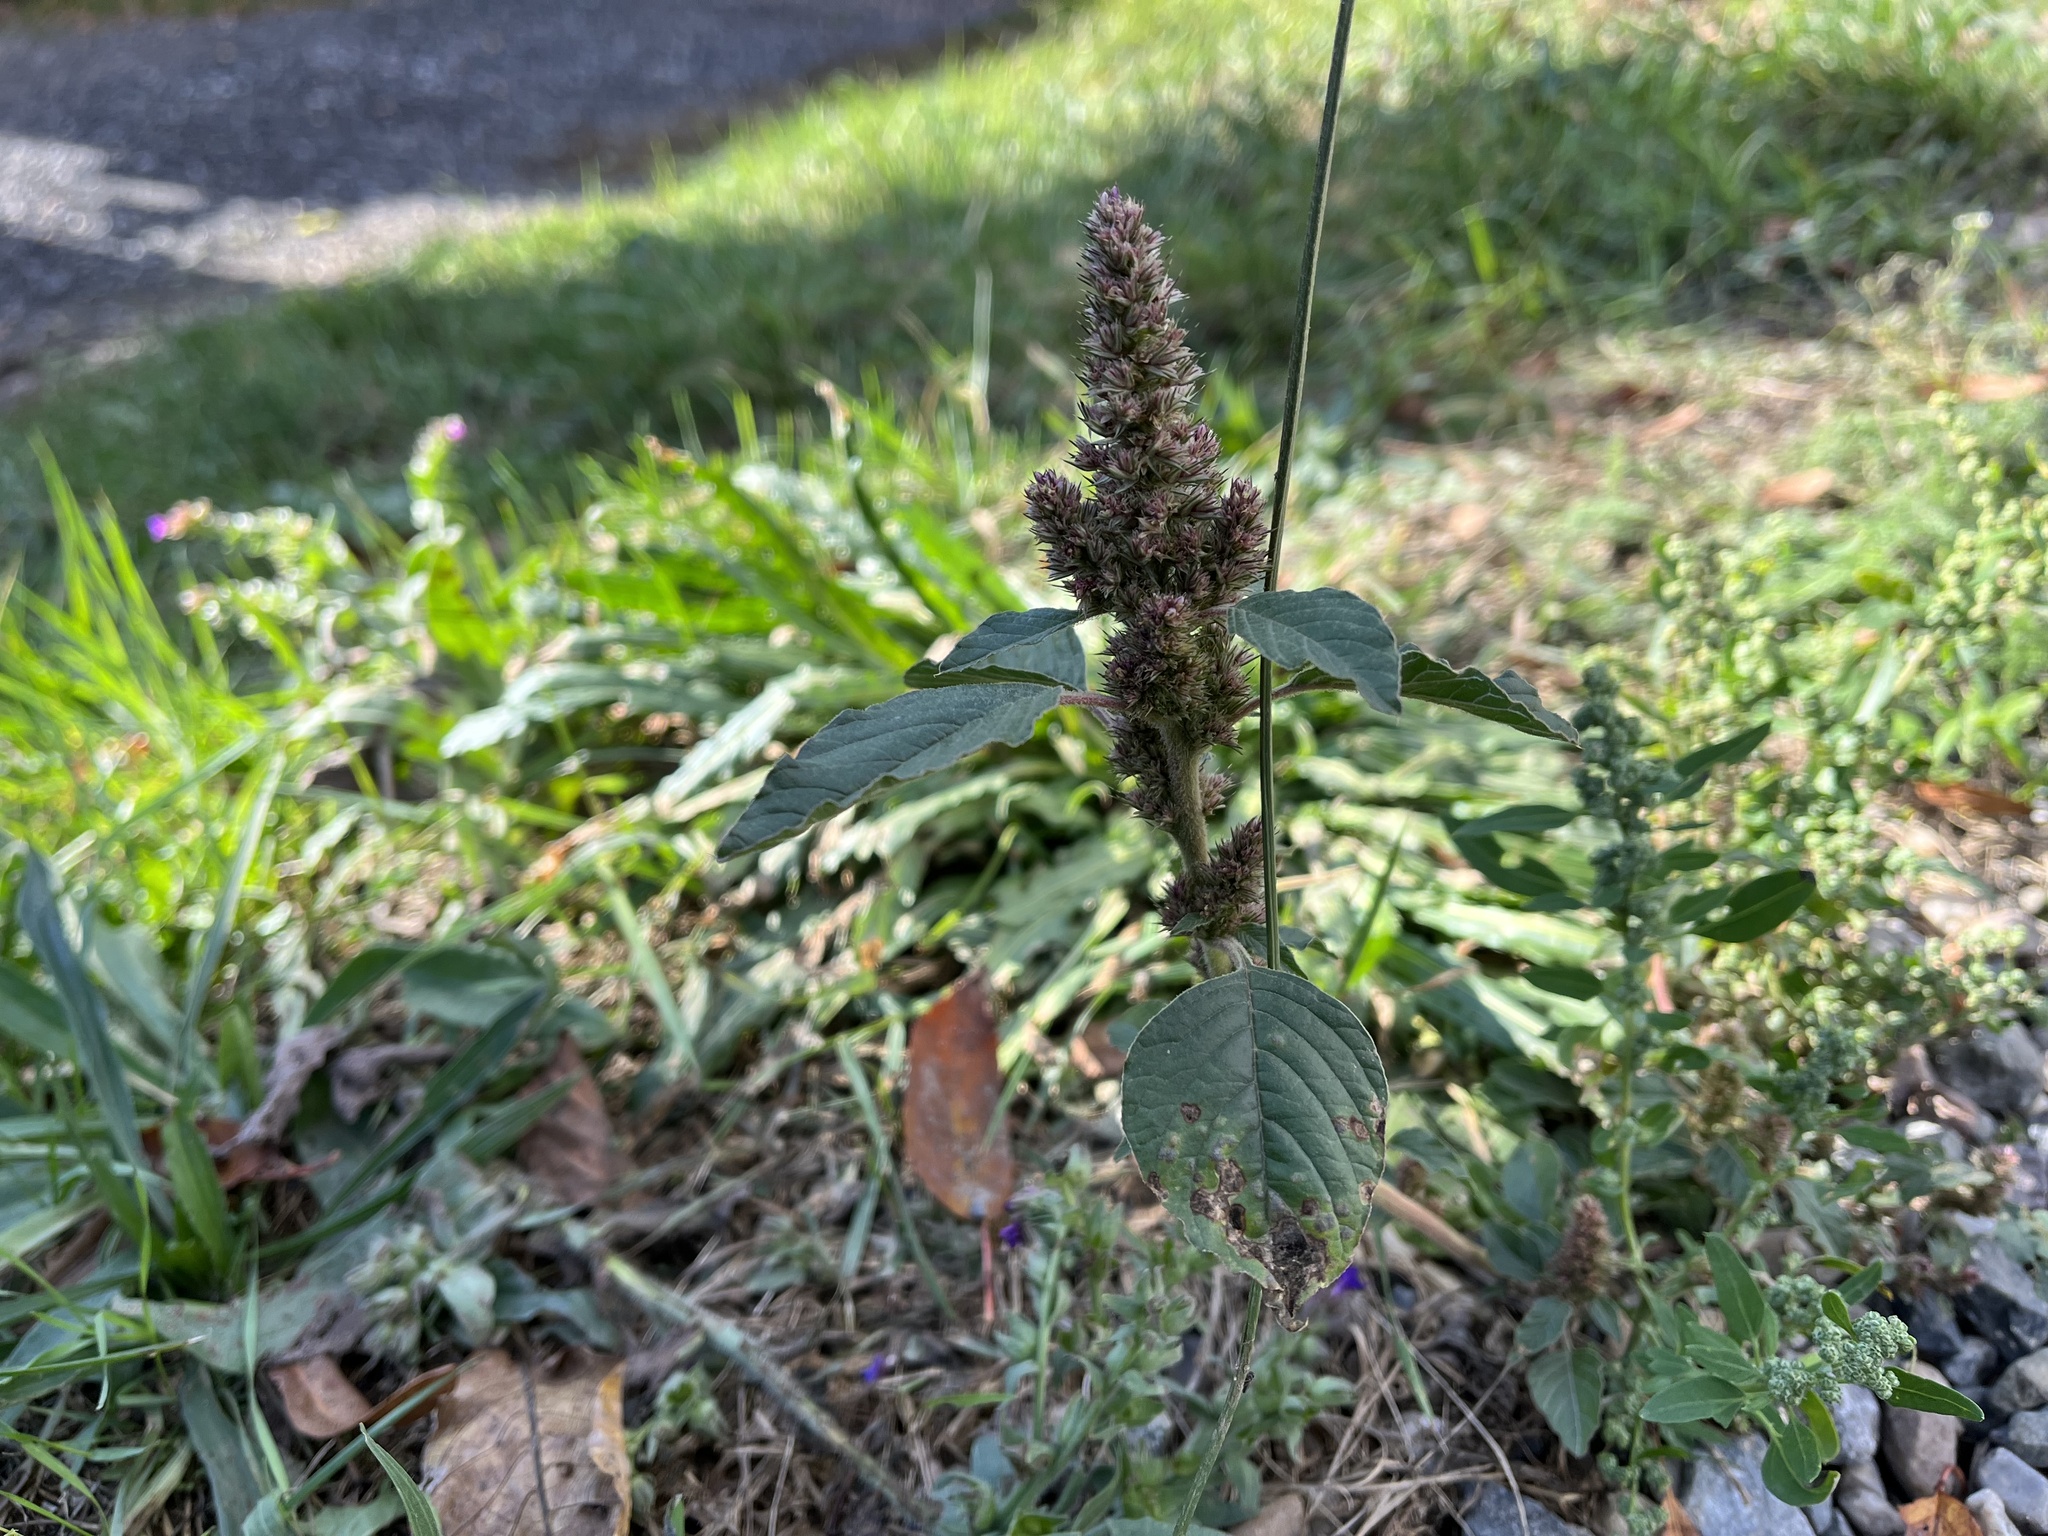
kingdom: Plantae
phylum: Tracheophyta
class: Magnoliopsida
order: Caryophyllales
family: Amaranthaceae
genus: Amaranthus
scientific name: Amaranthus retroflexus
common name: Redroot amaranth
